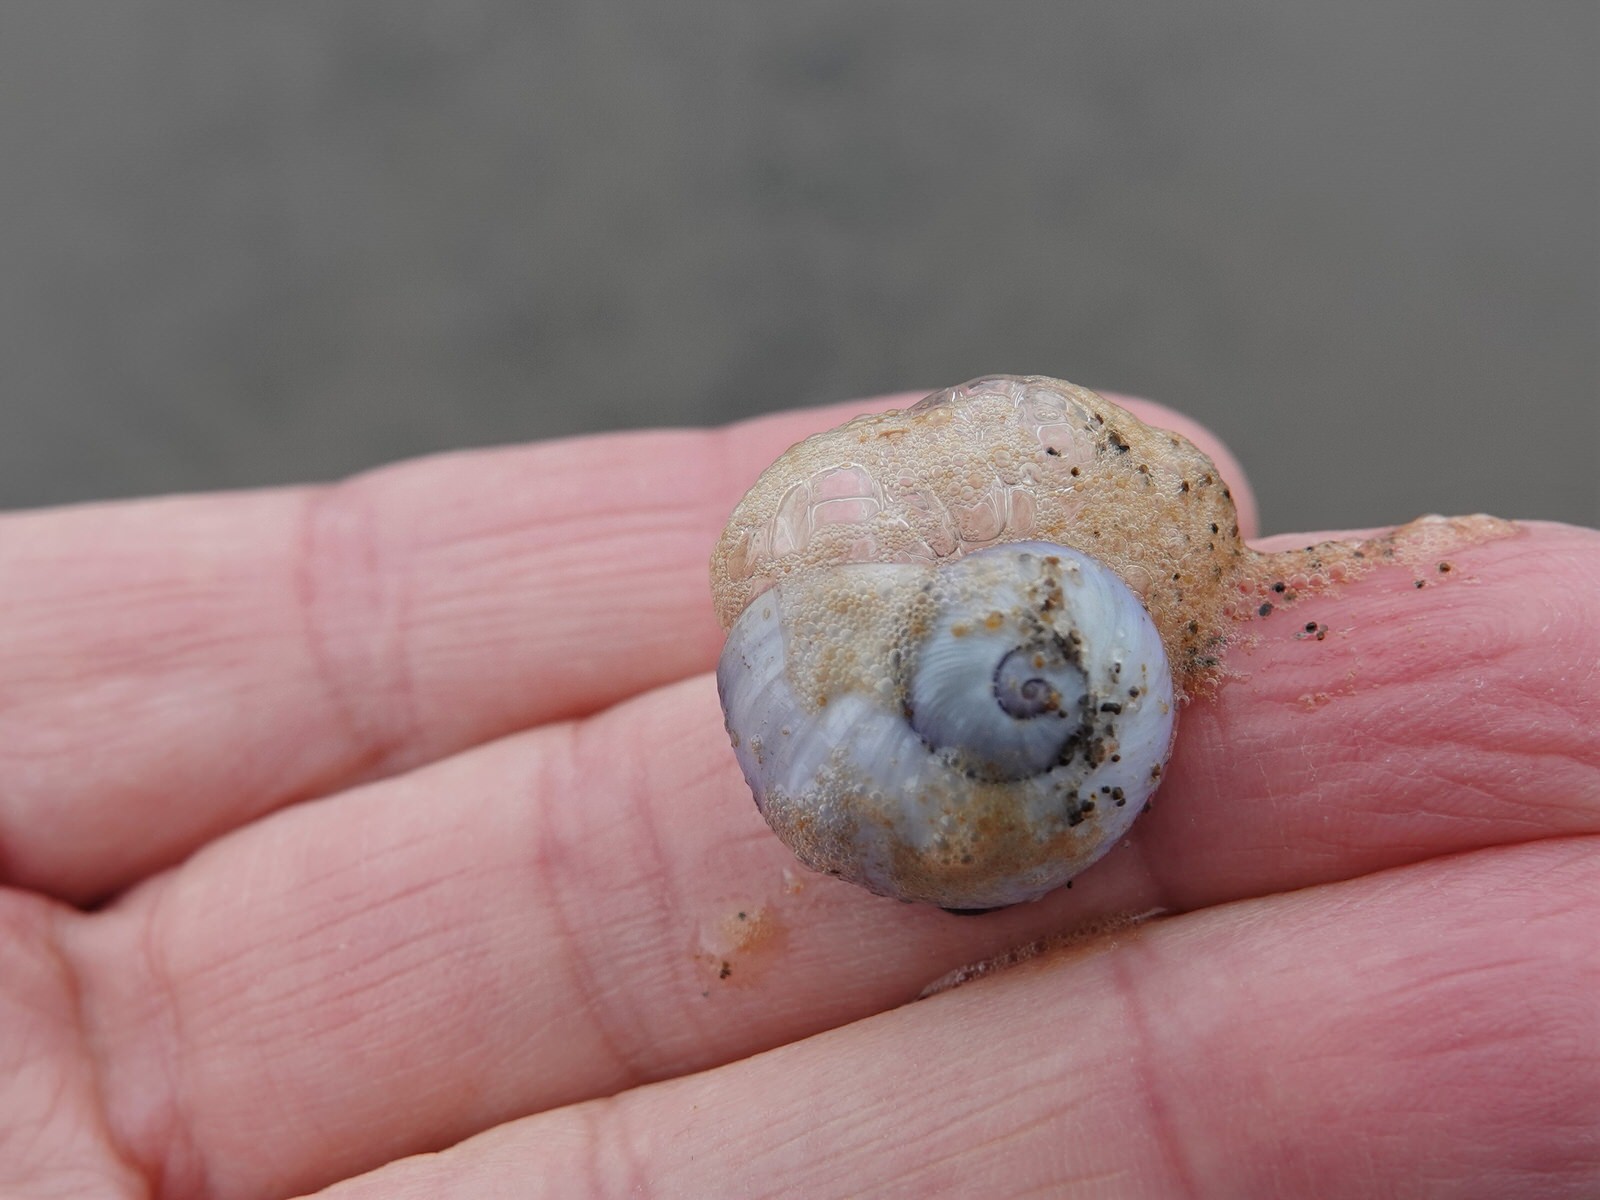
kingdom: Animalia
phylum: Mollusca
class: Gastropoda
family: Epitoniidae
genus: Janthina
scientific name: Janthina janthina
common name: Common janthina
